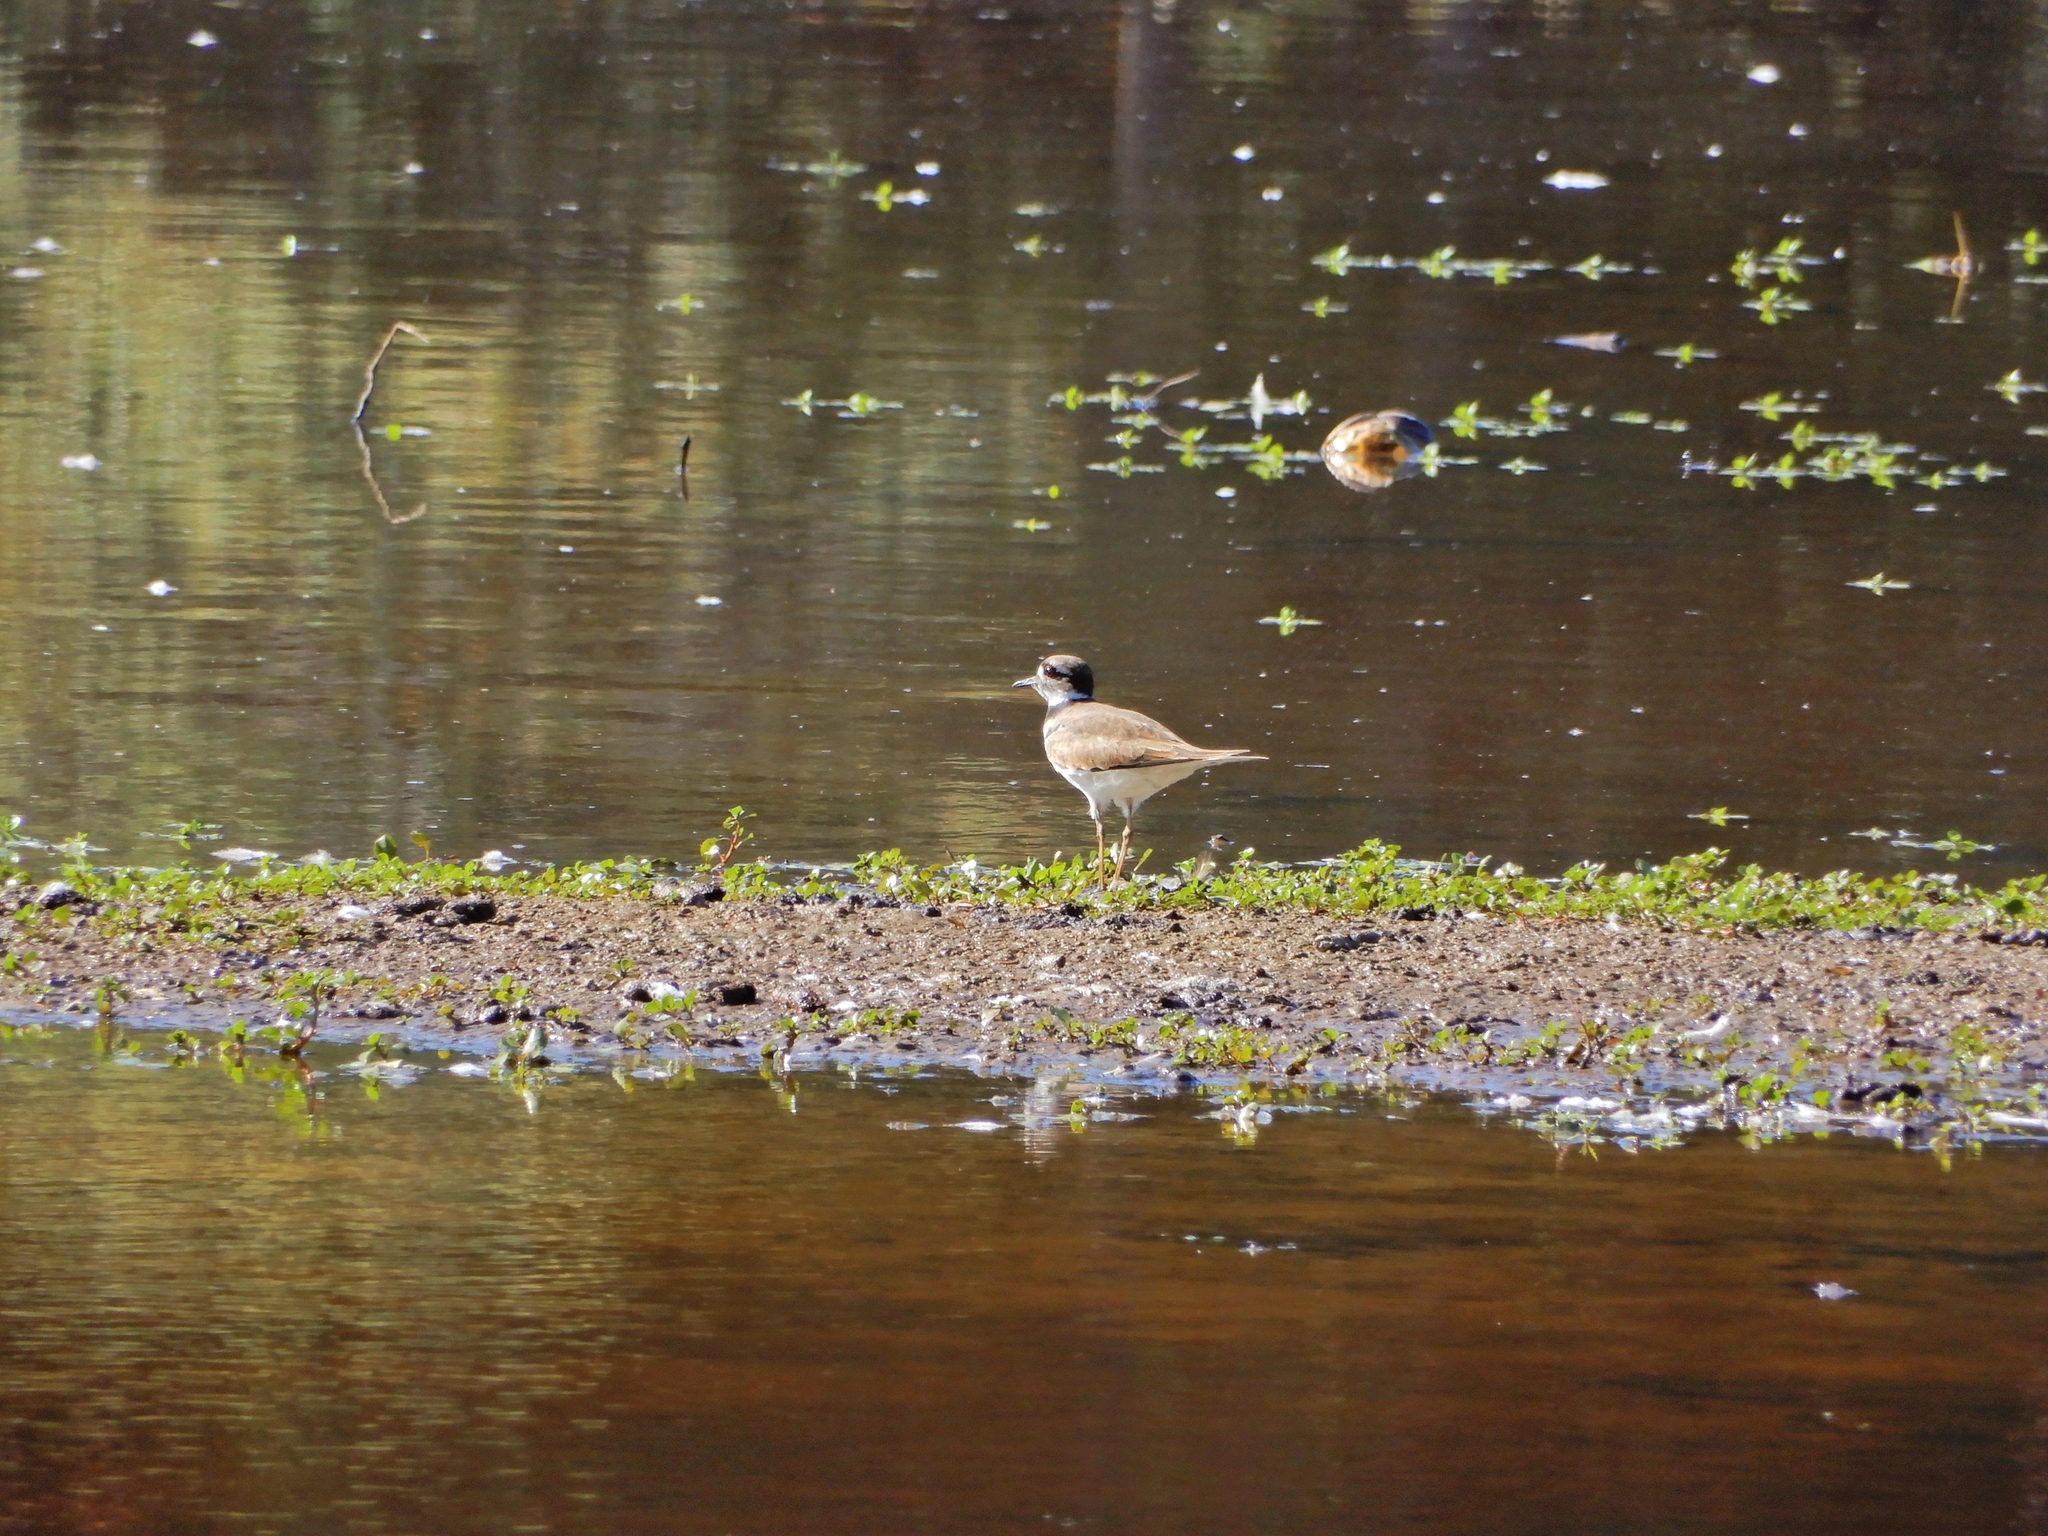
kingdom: Animalia
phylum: Chordata
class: Aves
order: Charadriiformes
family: Charadriidae
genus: Charadrius
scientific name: Charadrius vociferus
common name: Killdeer
